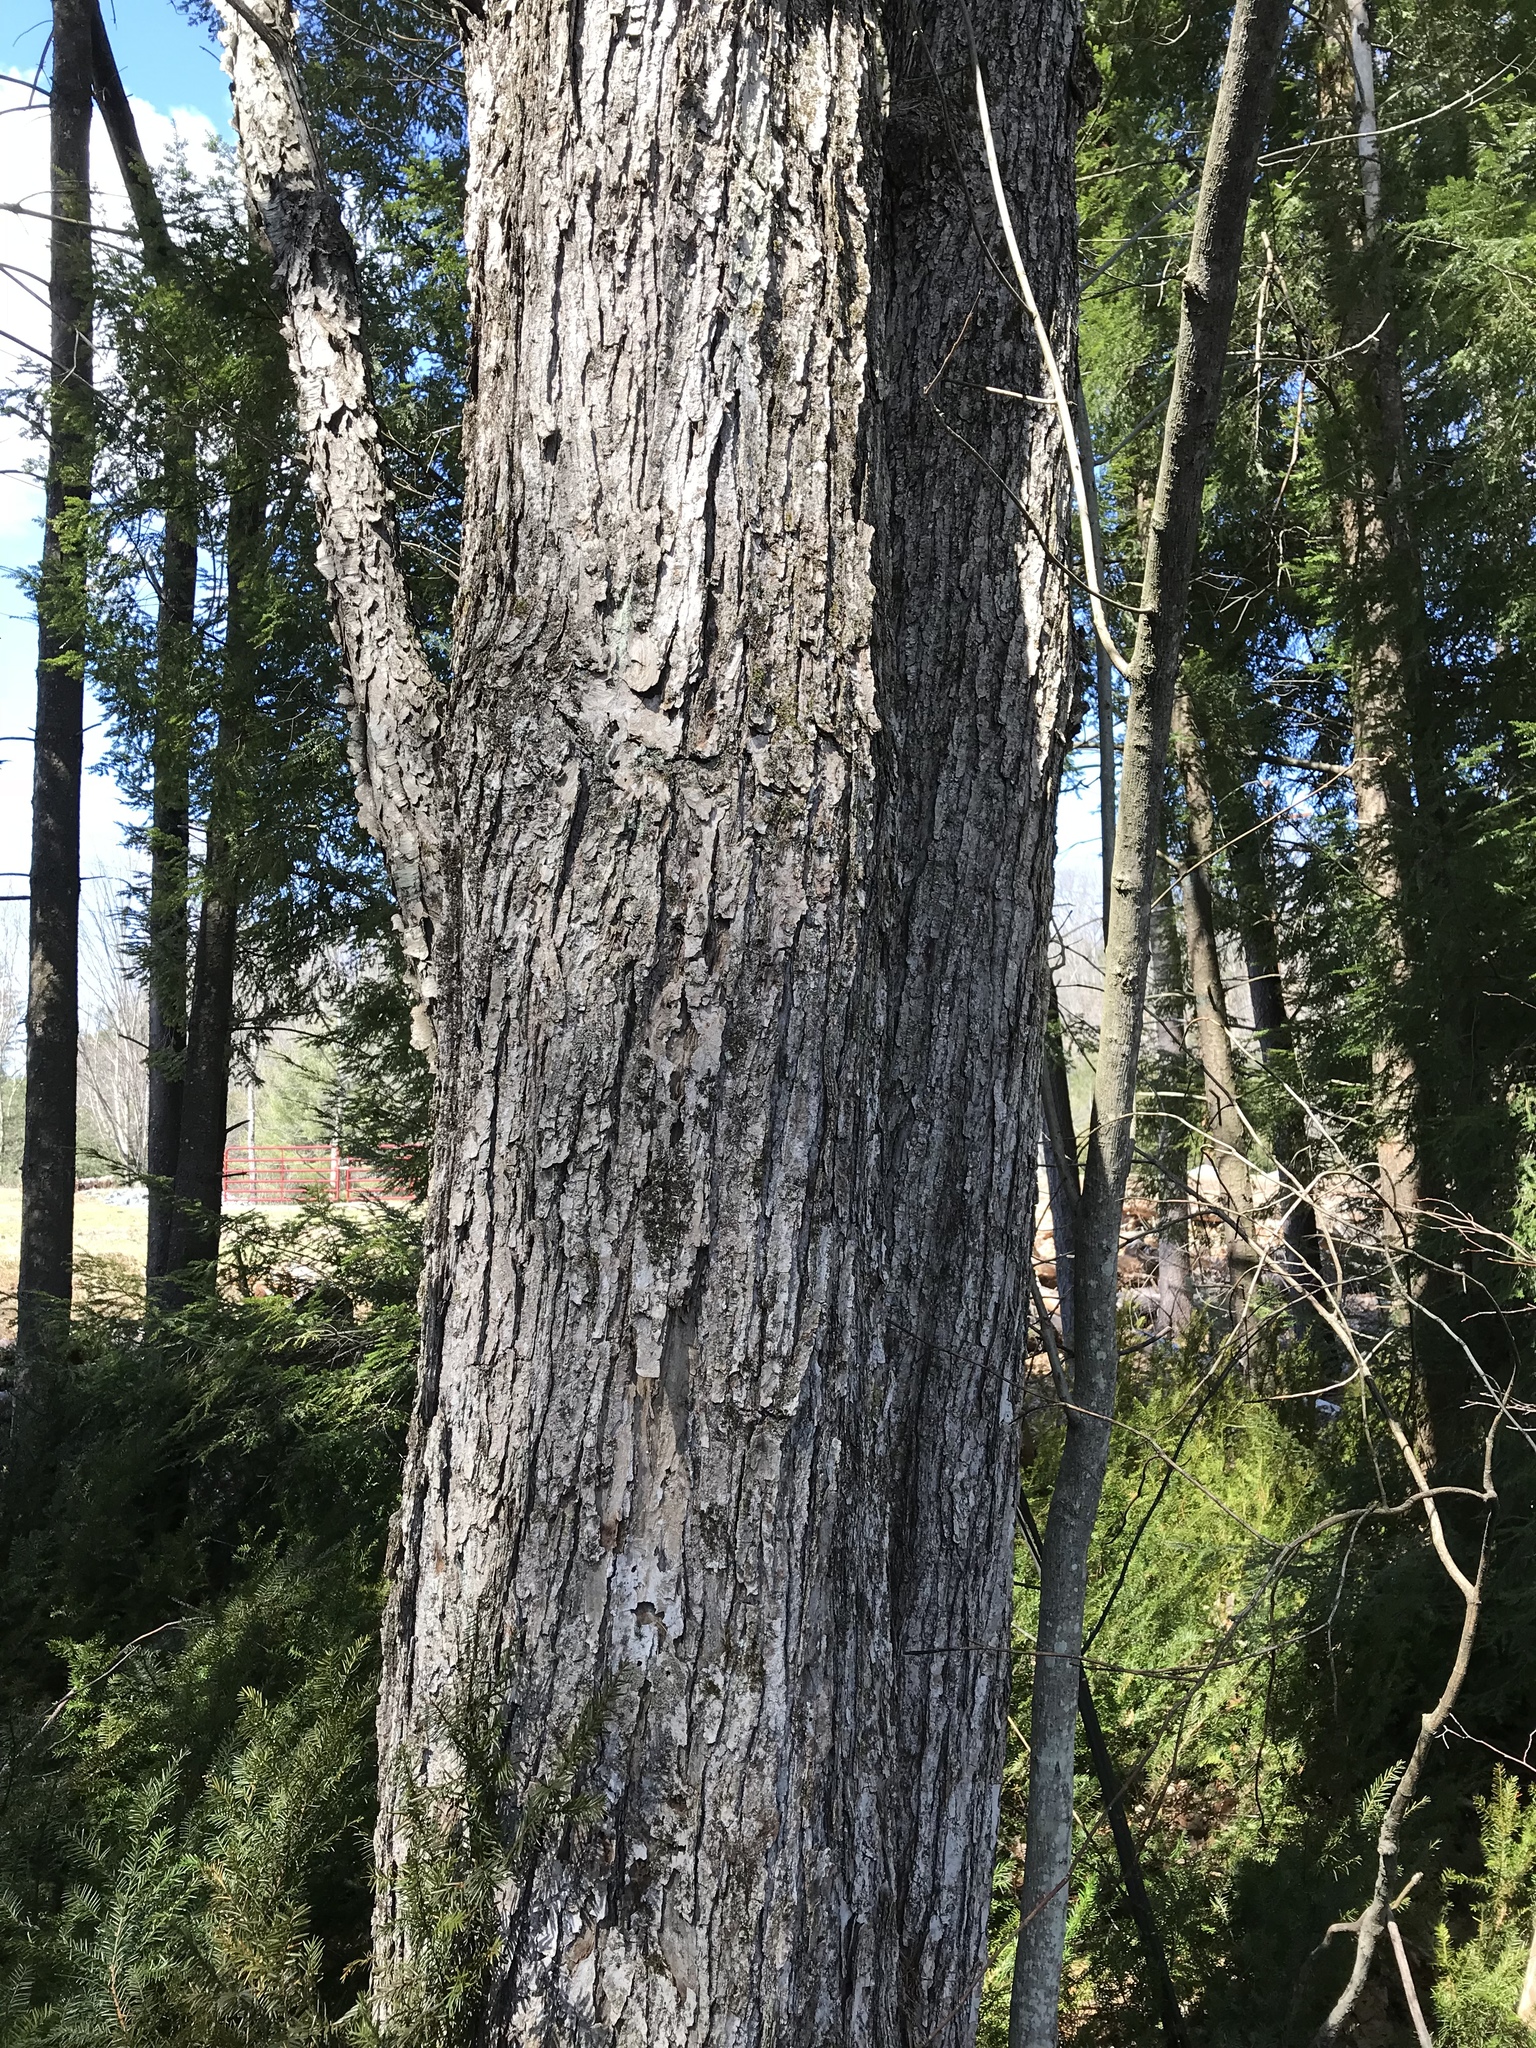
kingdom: Plantae
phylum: Tracheophyta
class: Magnoliopsida
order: Sapindales
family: Sapindaceae
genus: Acer
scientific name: Acer saccharum
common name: Sugar maple
